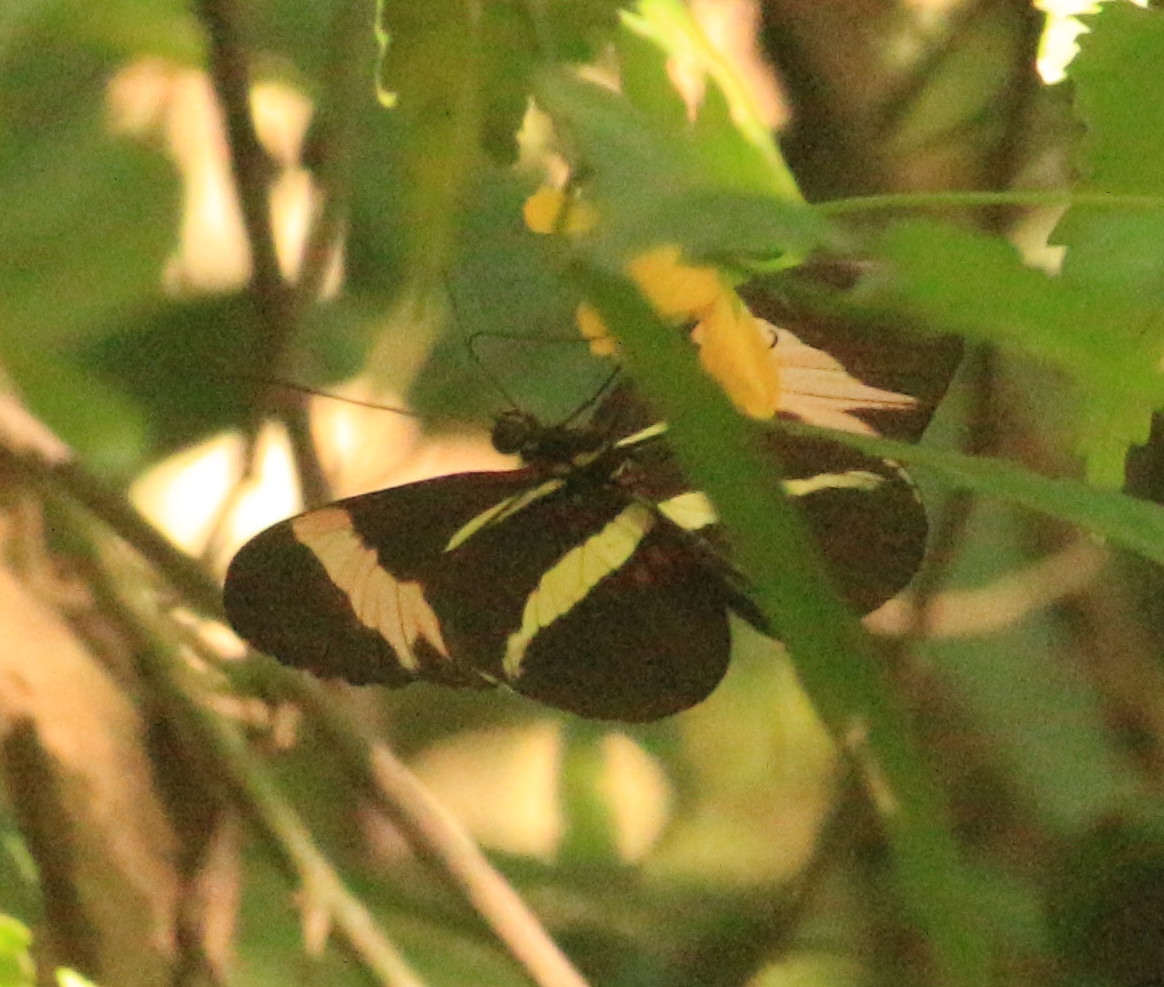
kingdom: Animalia
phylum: Arthropoda
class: Insecta
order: Lepidoptera
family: Nymphalidae
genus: Heliconius
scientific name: Heliconius erato
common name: Common patch longwing
